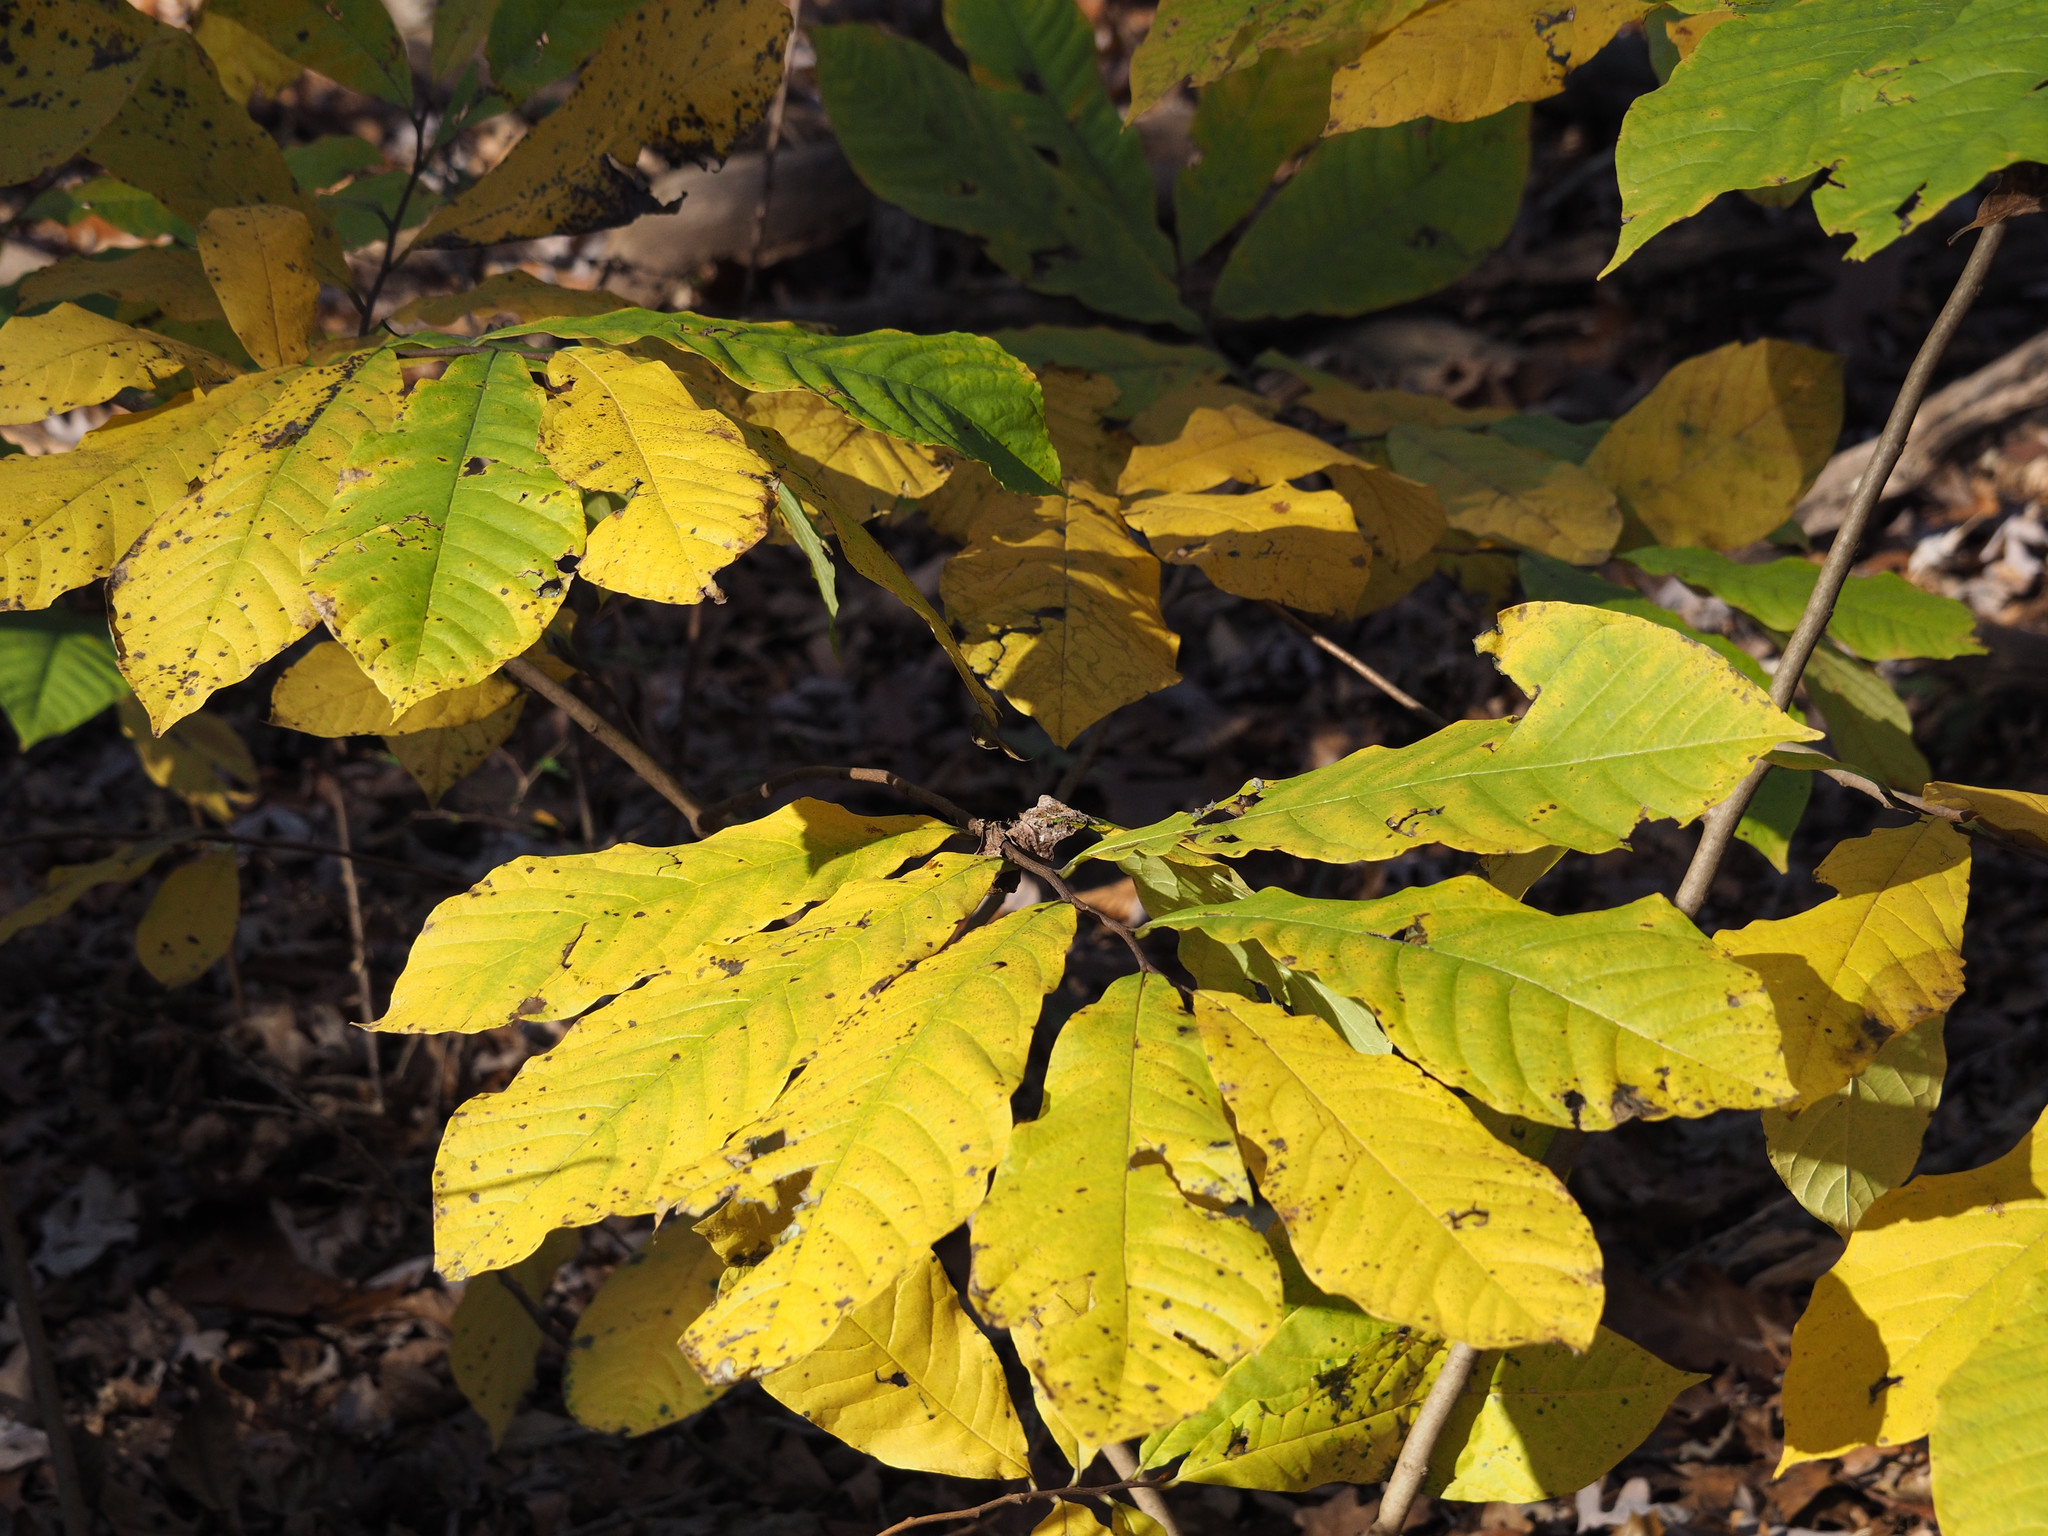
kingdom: Plantae
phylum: Tracheophyta
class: Magnoliopsida
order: Magnoliales
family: Annonaceae
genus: Asimina
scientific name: Asimina triloba
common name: Dog-banana
